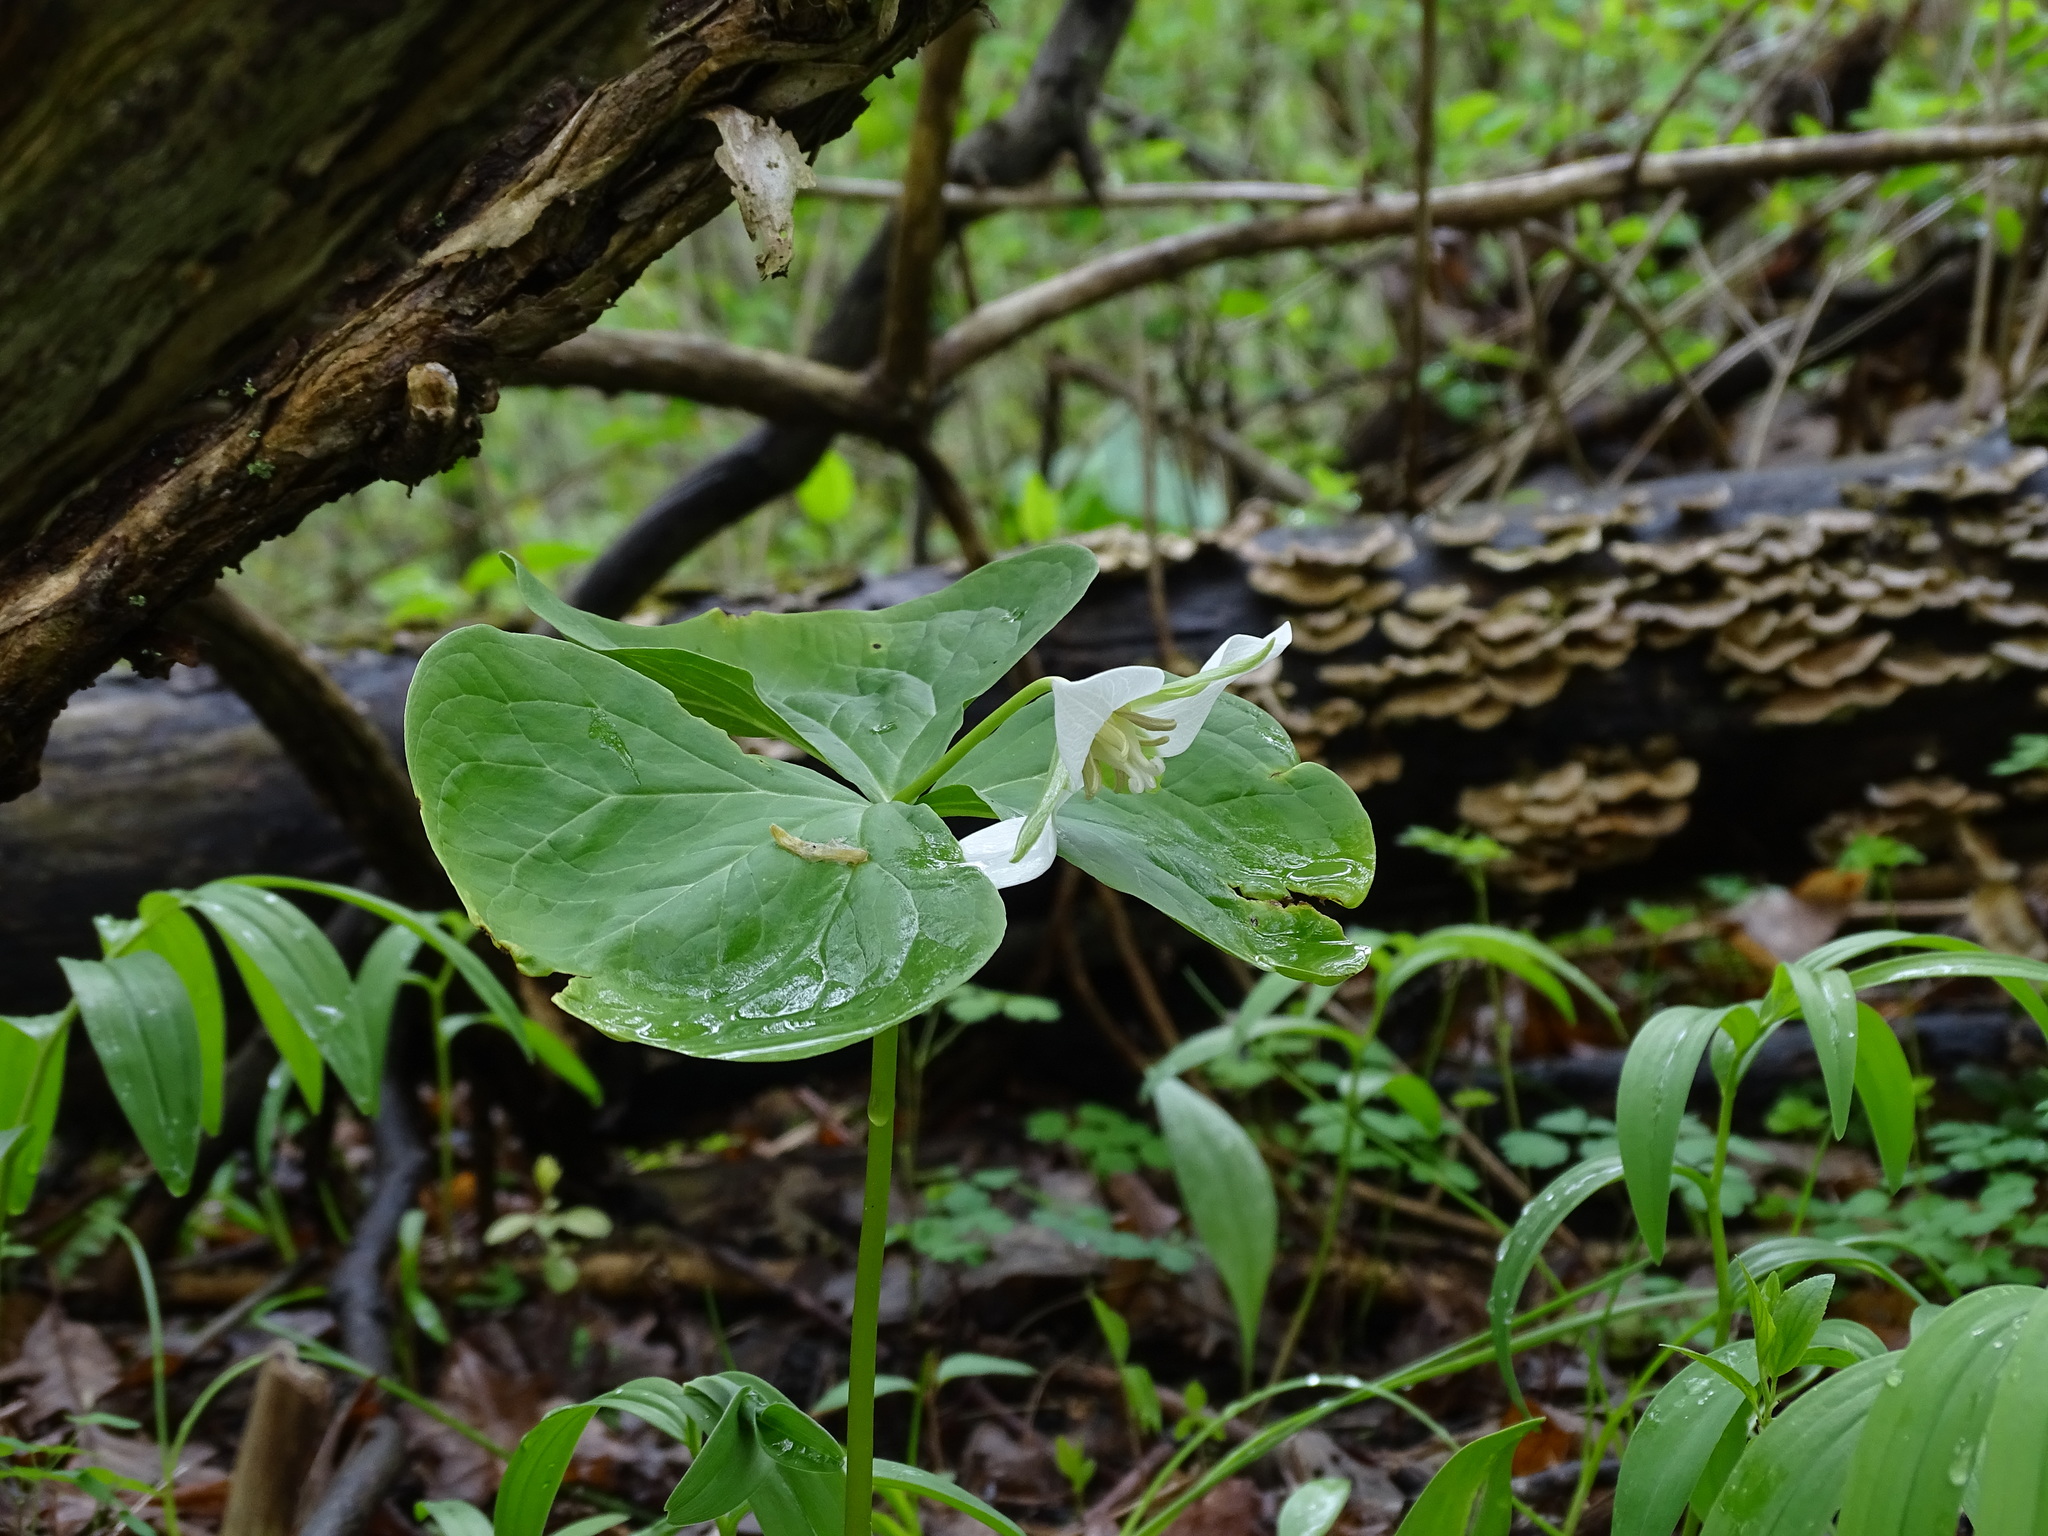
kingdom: Plantae
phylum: Tracheophyta
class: Liliopsida
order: Liliales
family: Melanthiaceae
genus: Trillium
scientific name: Trillium flexipes
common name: Drooping trillium
